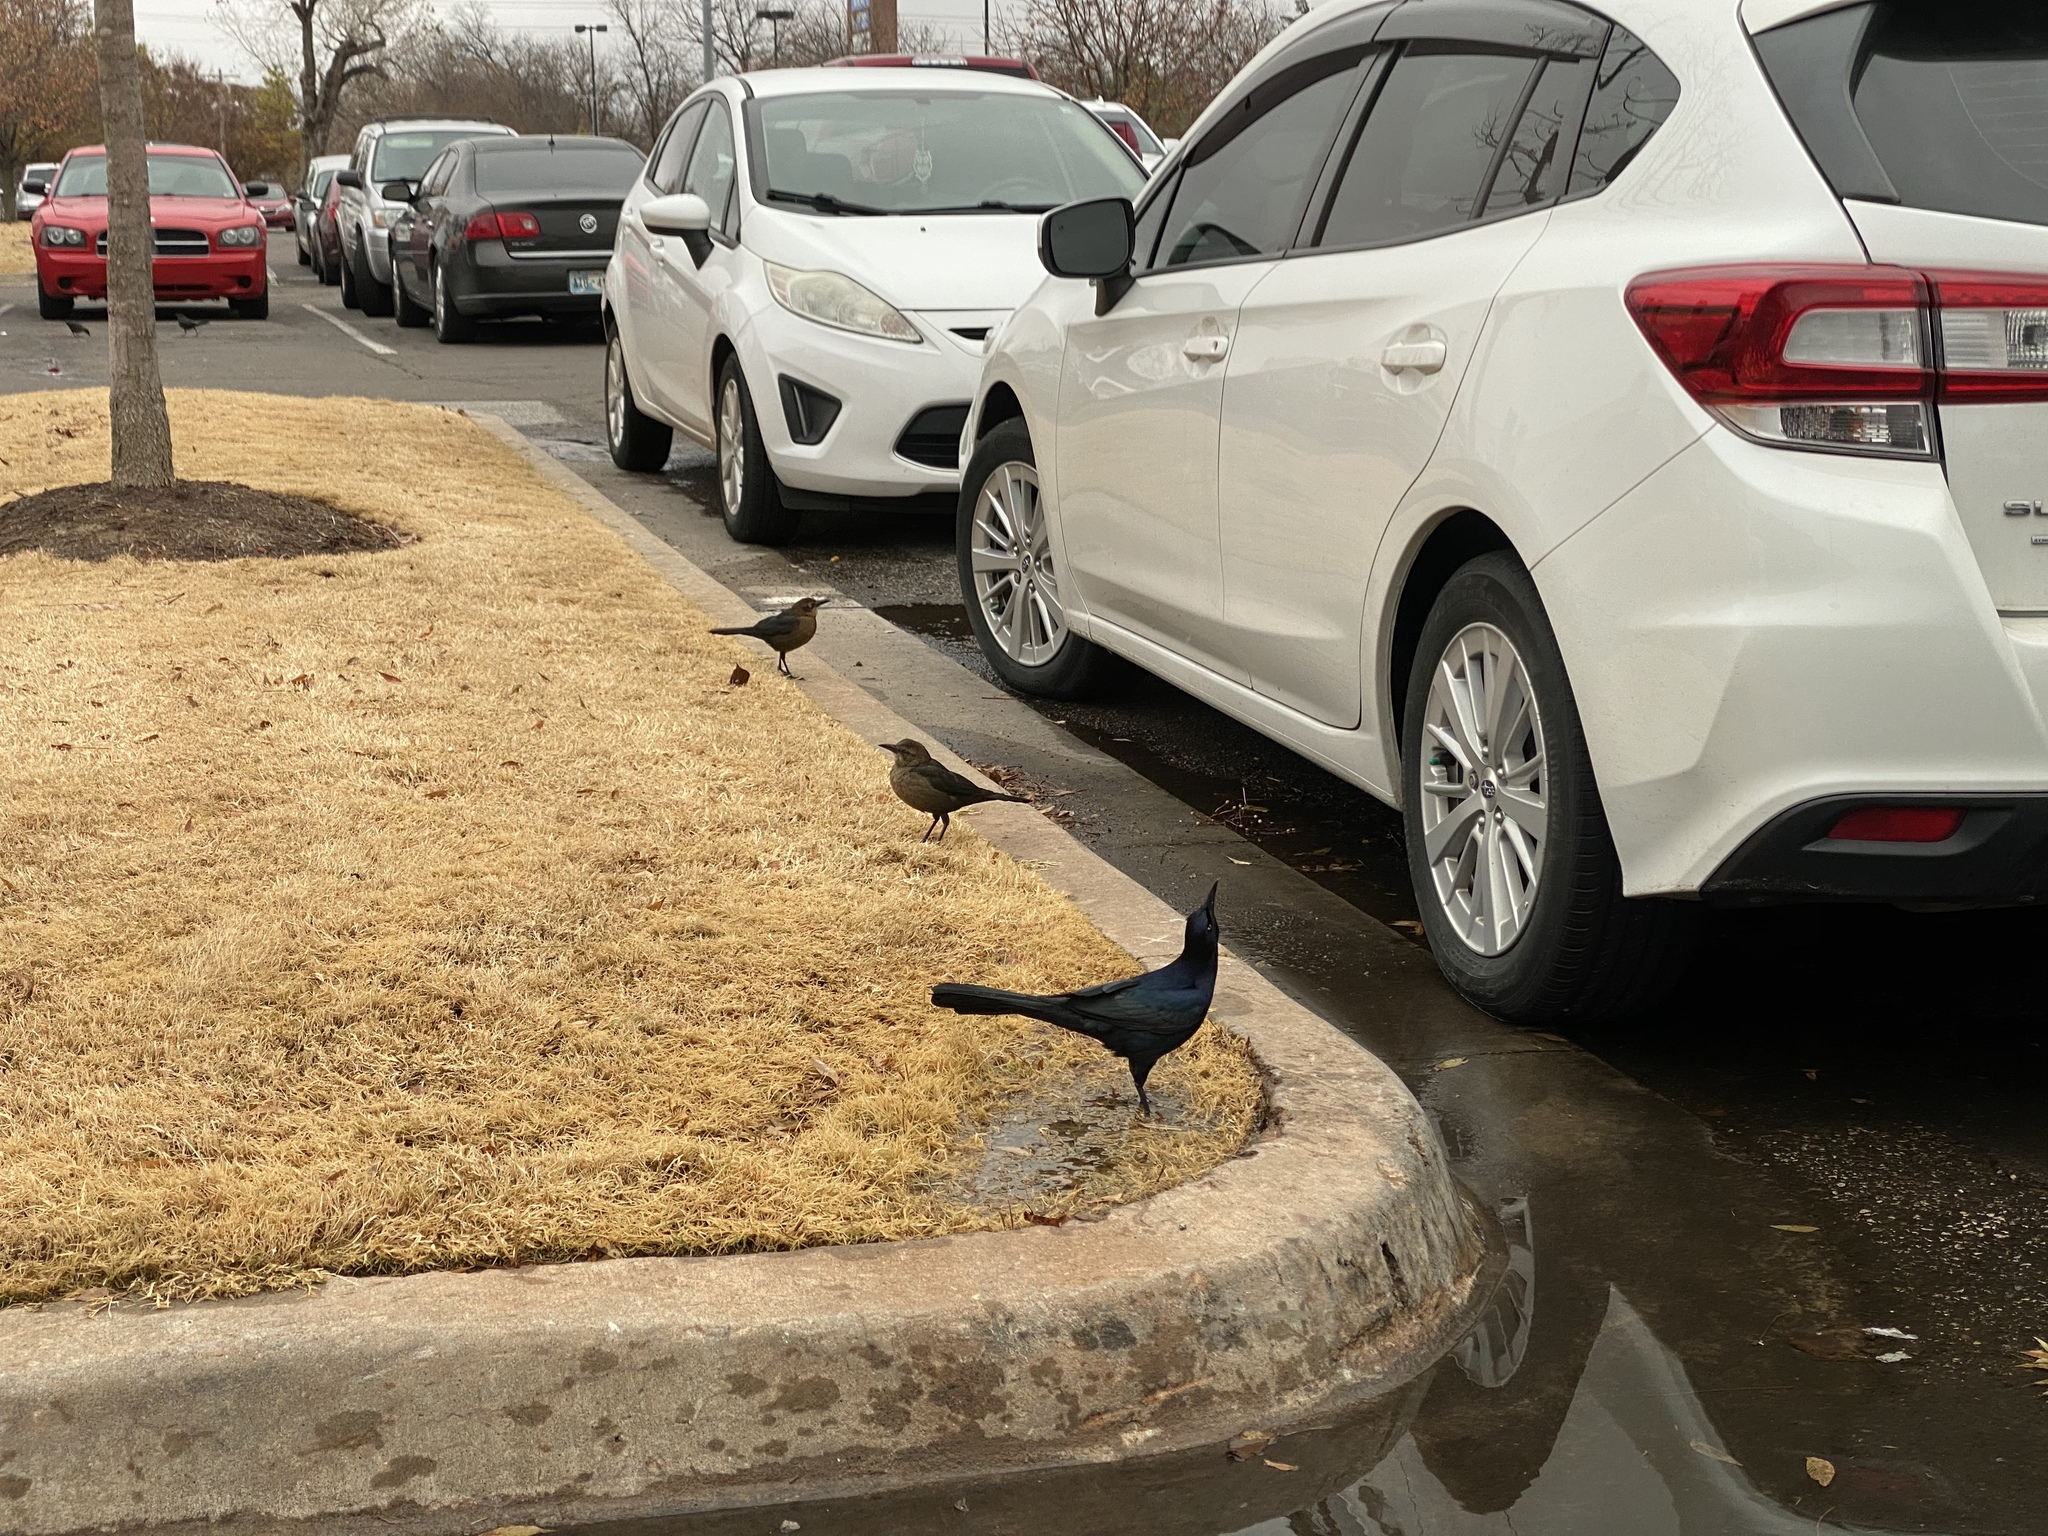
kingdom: Animalia
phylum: Chordata
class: Aves
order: Passeriformes
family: Icteridae
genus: Quiscalus
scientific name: Quiscalus mexicanus
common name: Great-tailed grackle
